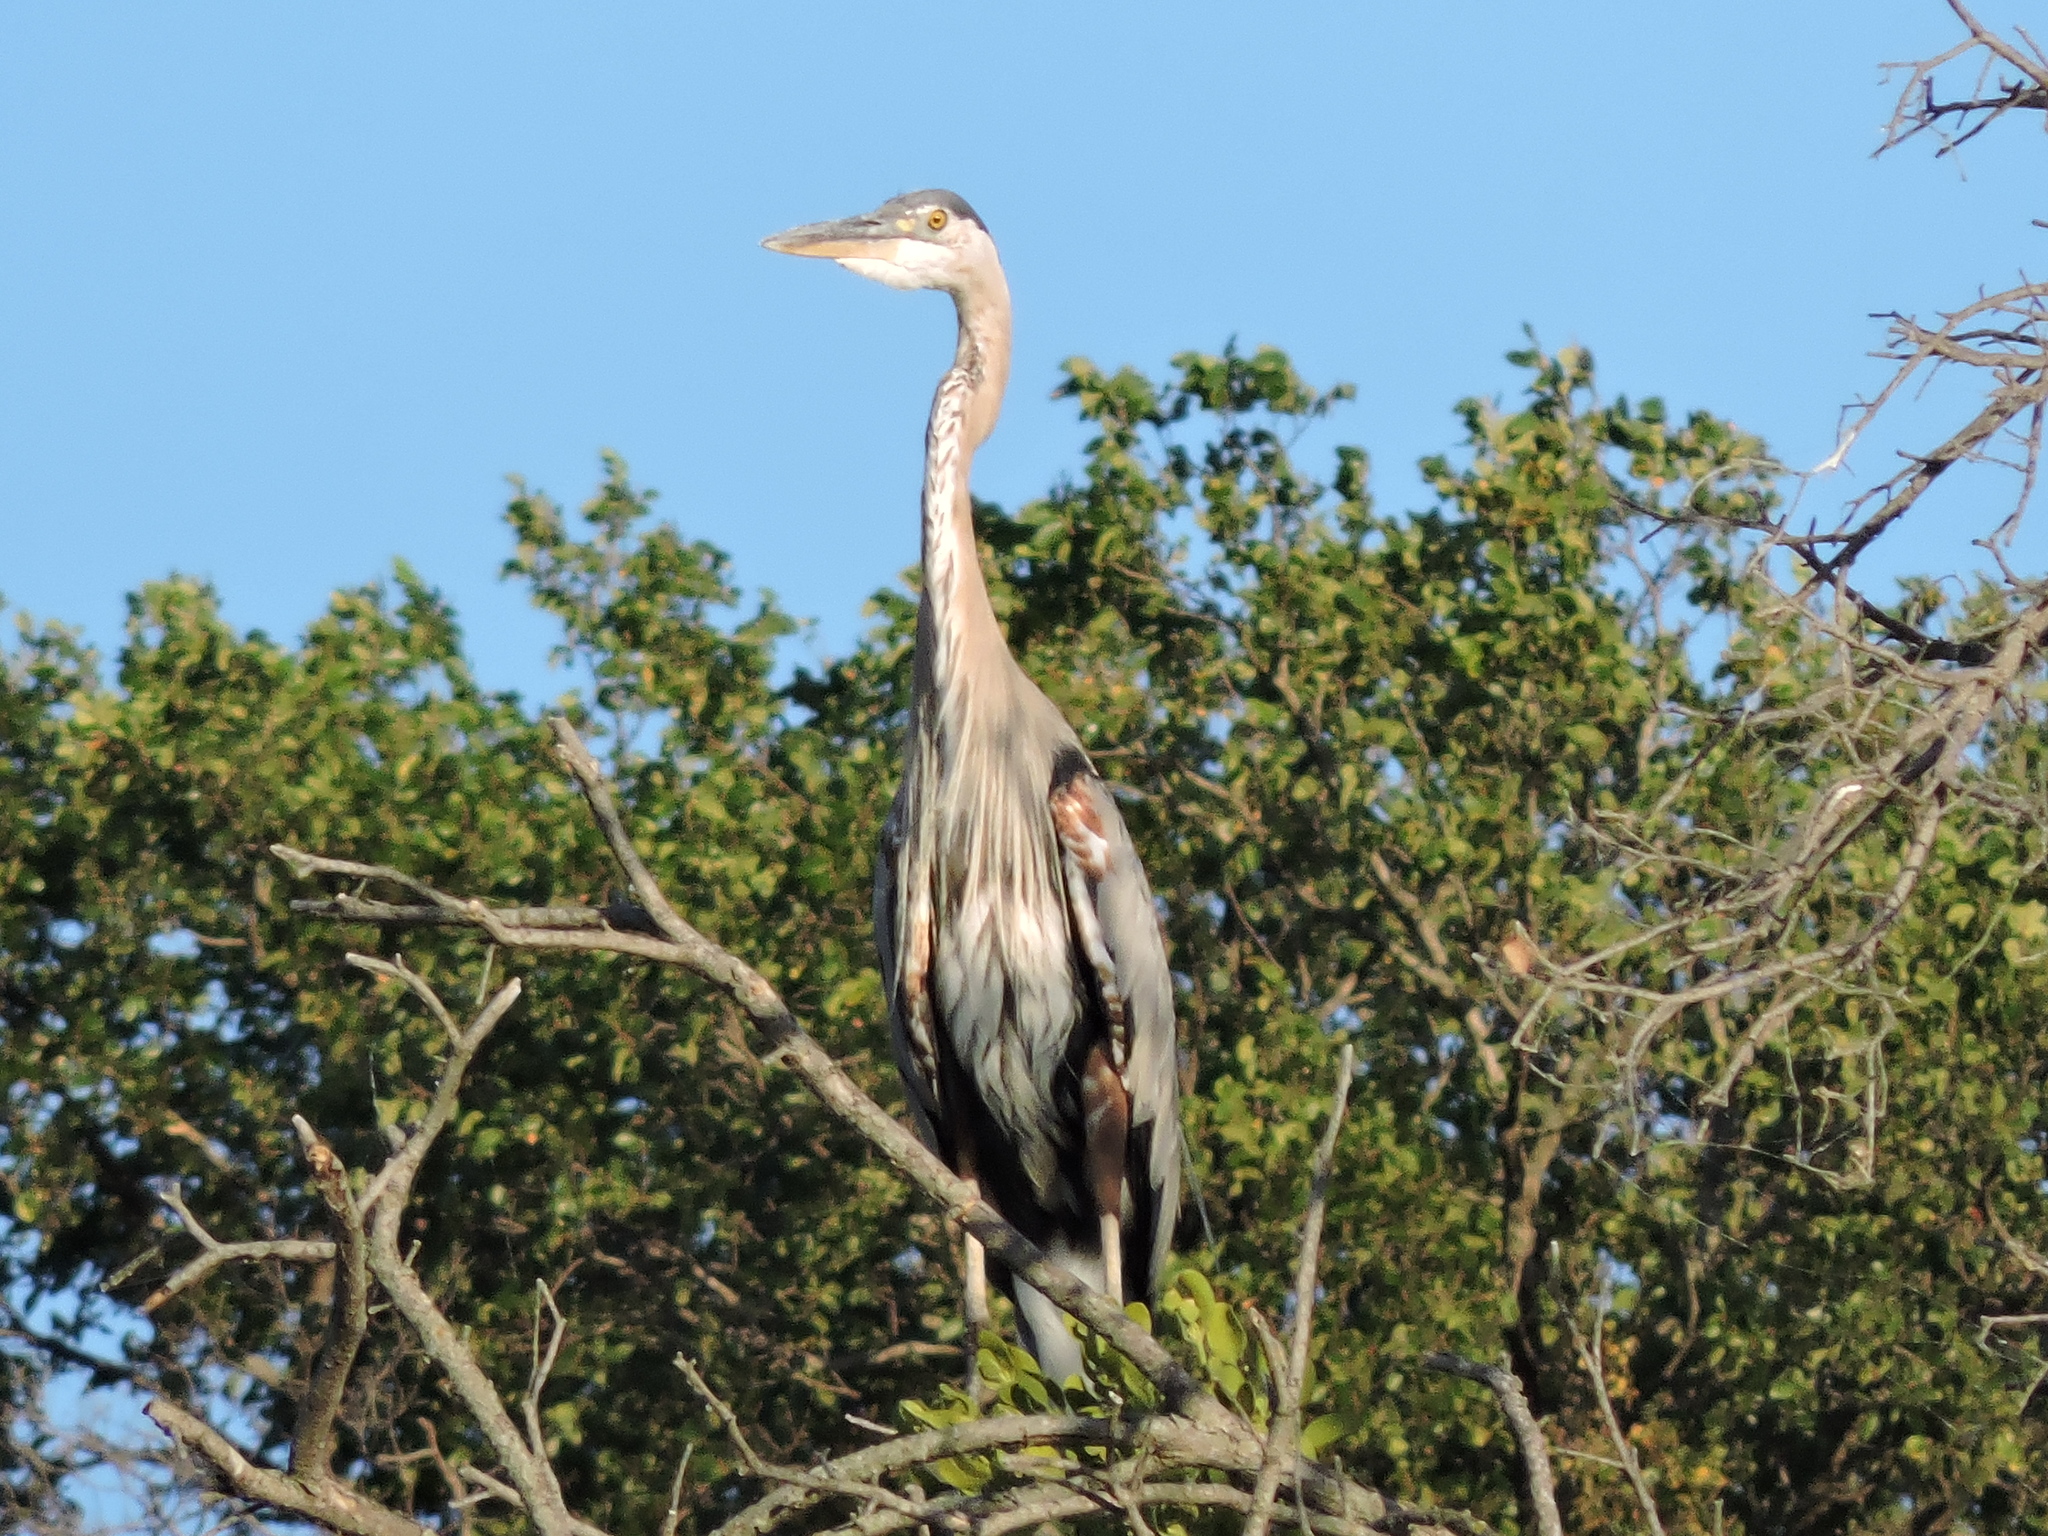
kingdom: Animalia
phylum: Chordata
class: Aves
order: Pelecaniformes
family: Ardeidae
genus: Ardea
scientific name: Ardea herodias
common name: Great blue heron
